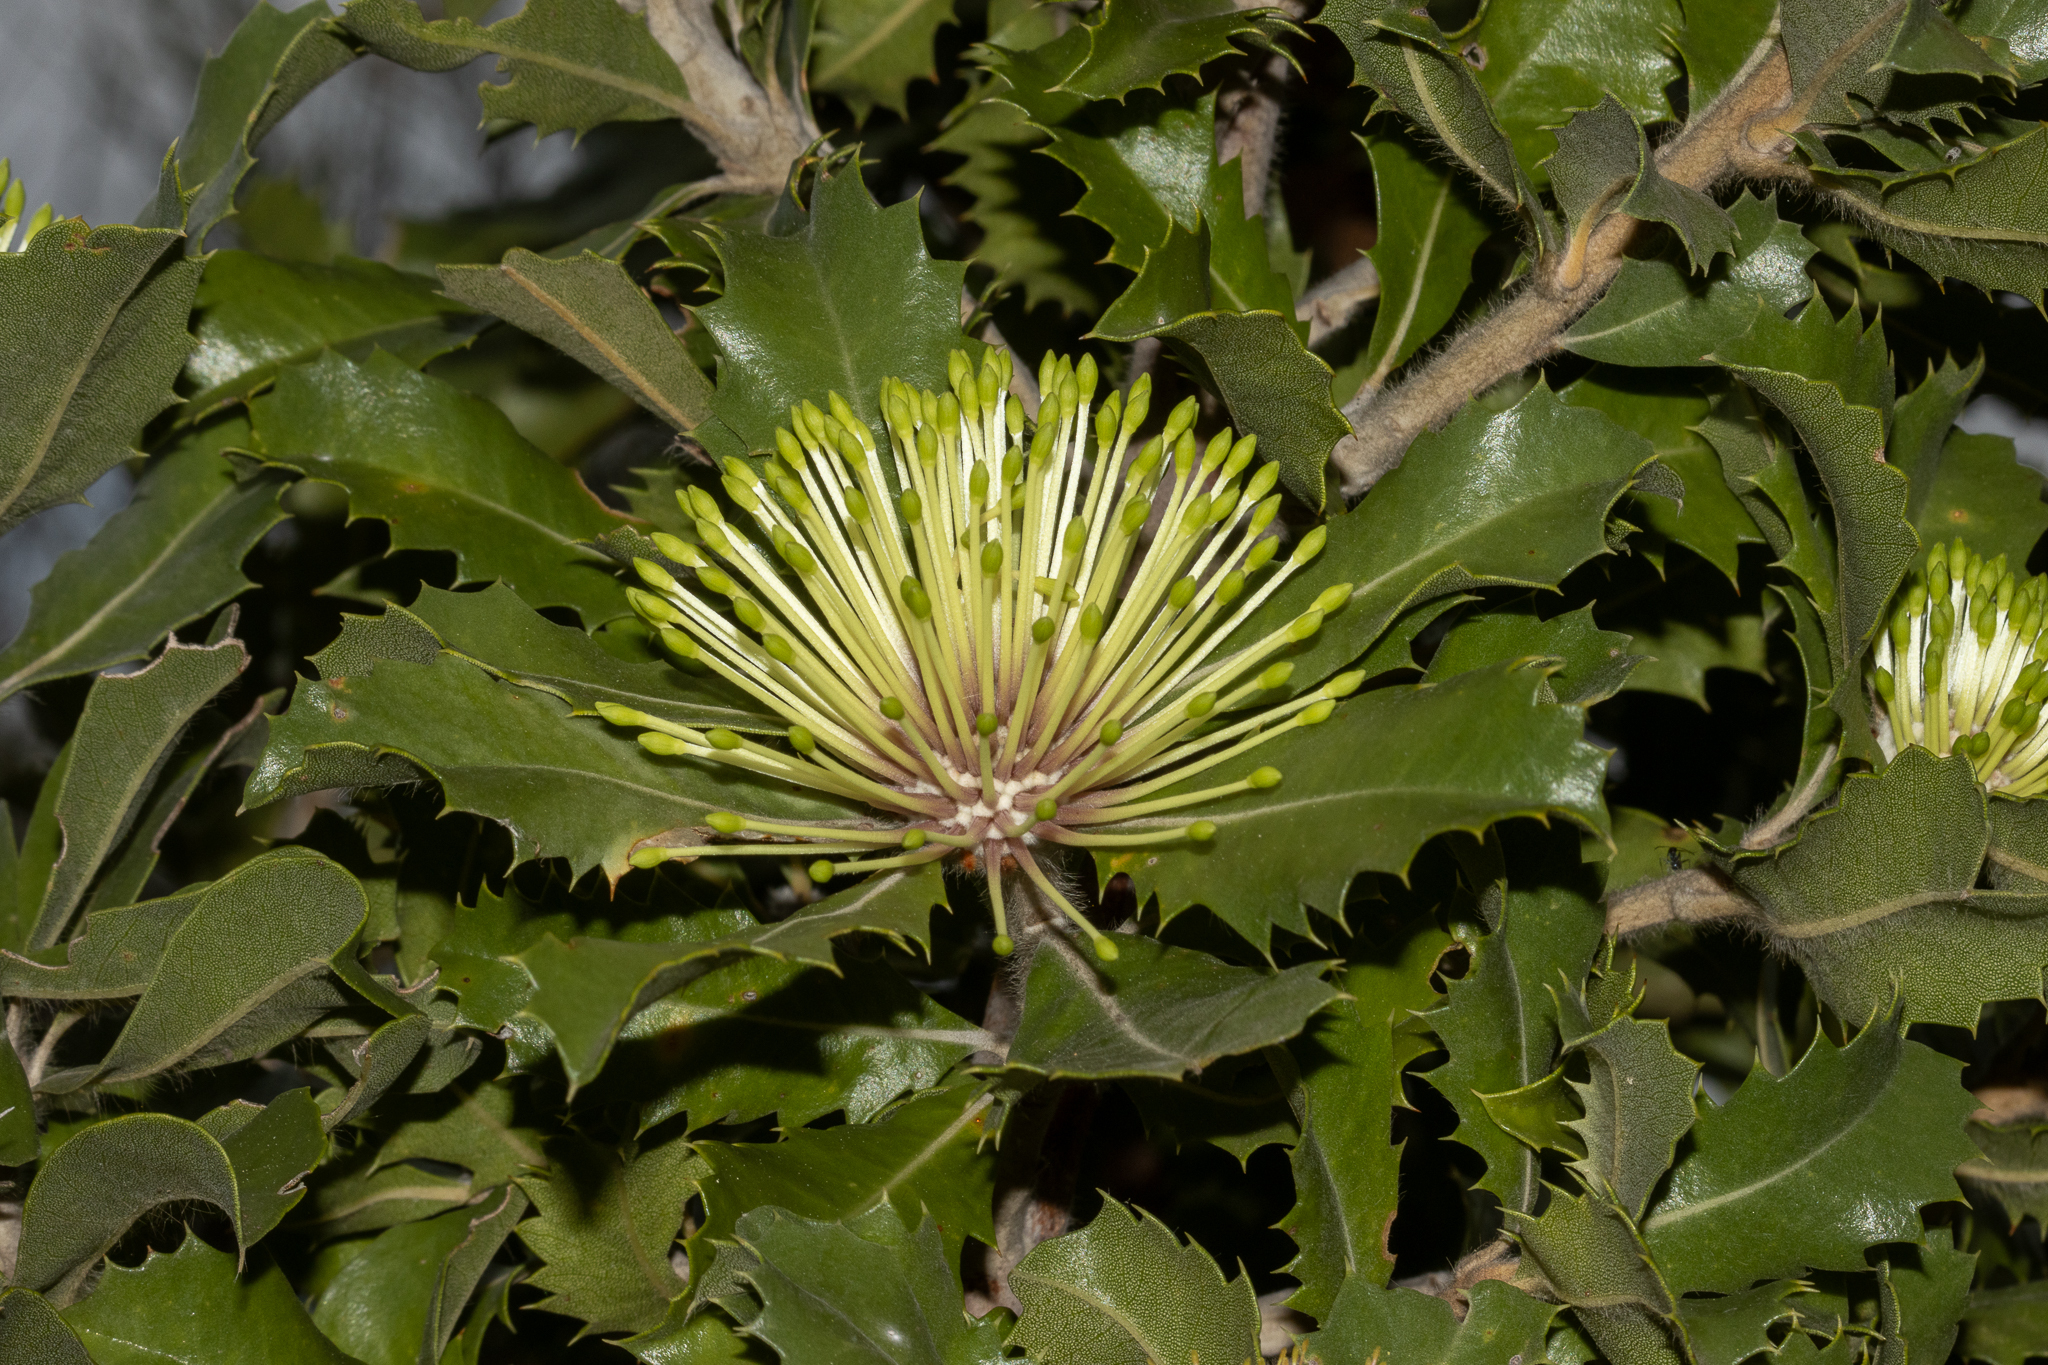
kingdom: Plantae
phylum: Tracheophyta
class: Magnoliopsida
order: Proteales
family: Proteaceae
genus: Banksia
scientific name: Banksia ilicifolia
